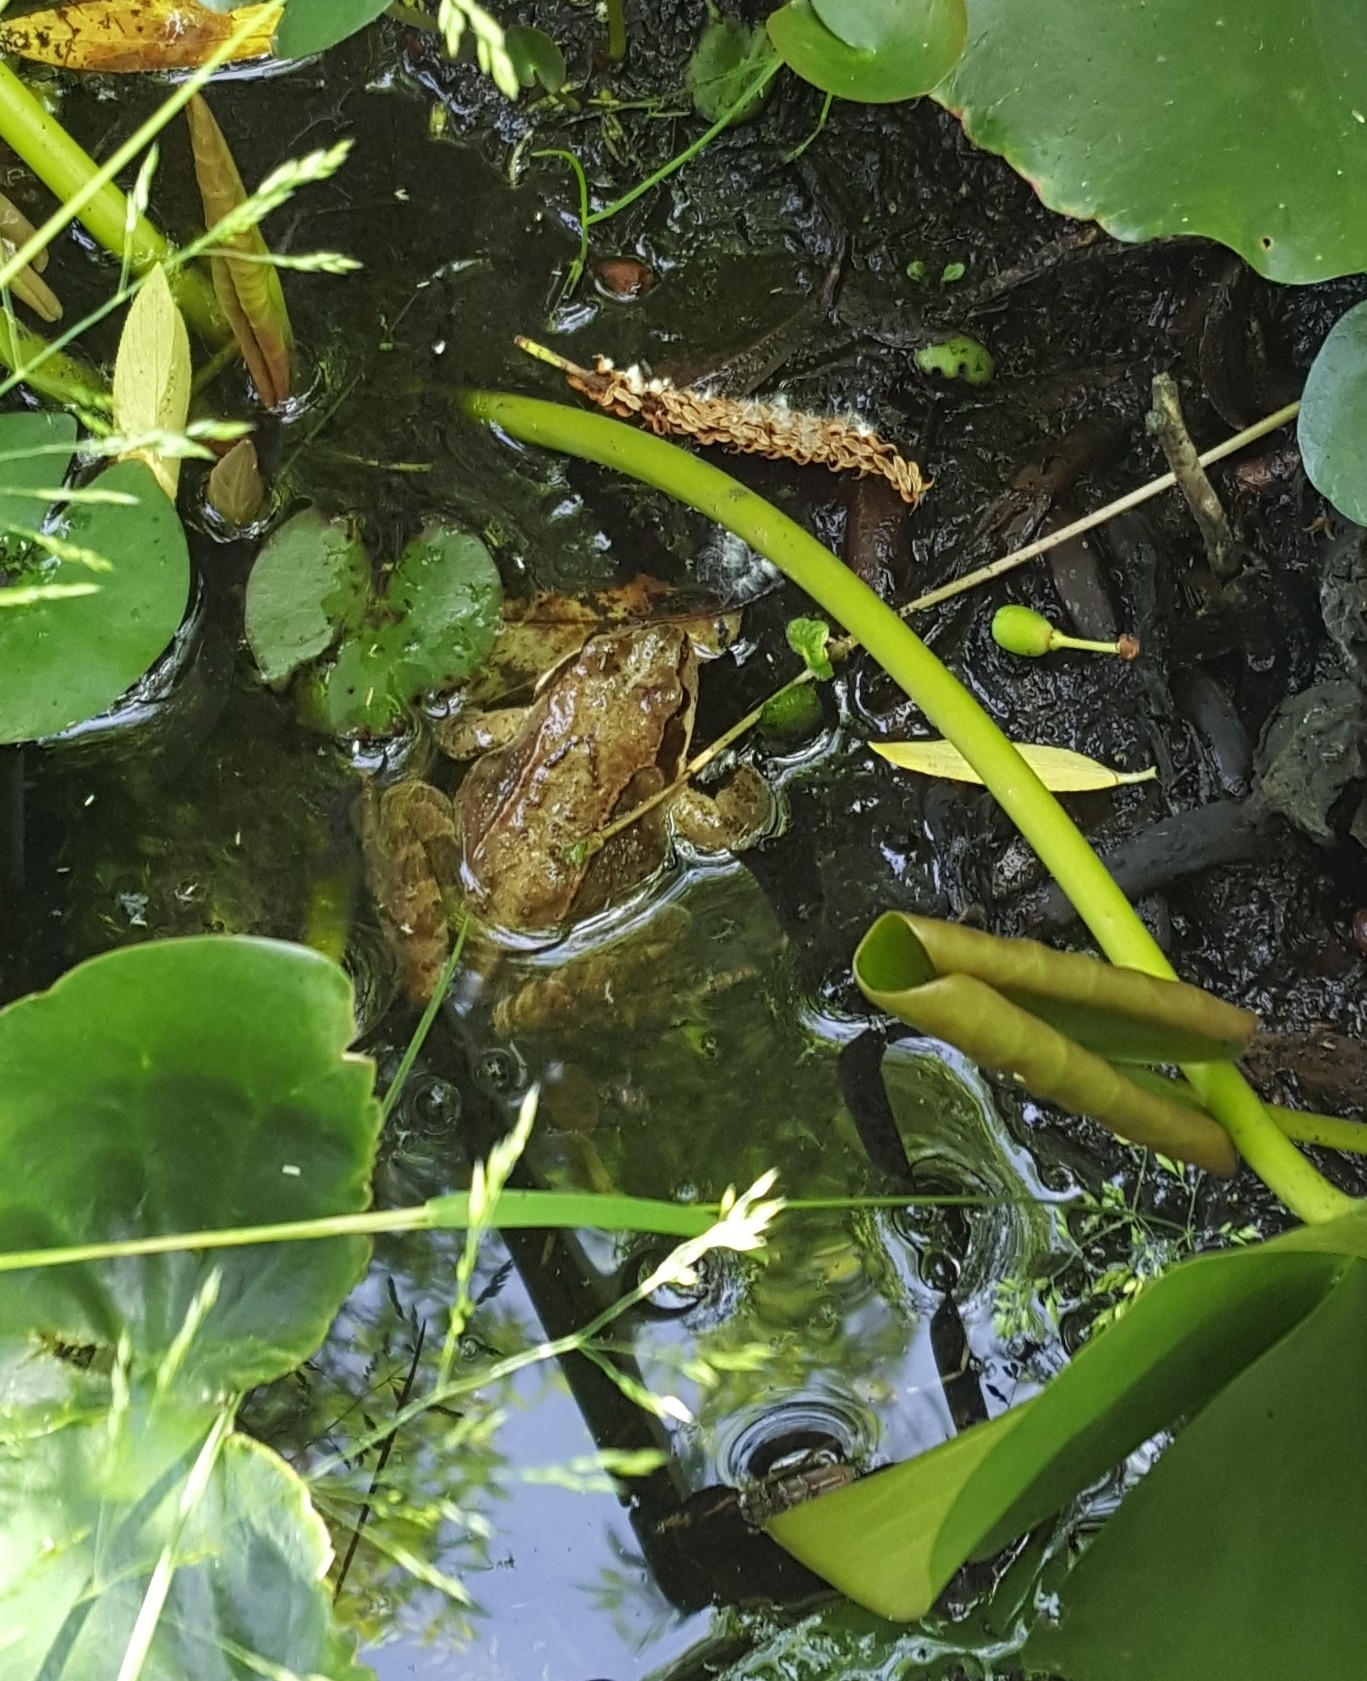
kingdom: Animalia
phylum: Chordata
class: Amphibia
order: Anura
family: Ranidae
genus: Rana
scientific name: Rana temporaria
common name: Common frog
